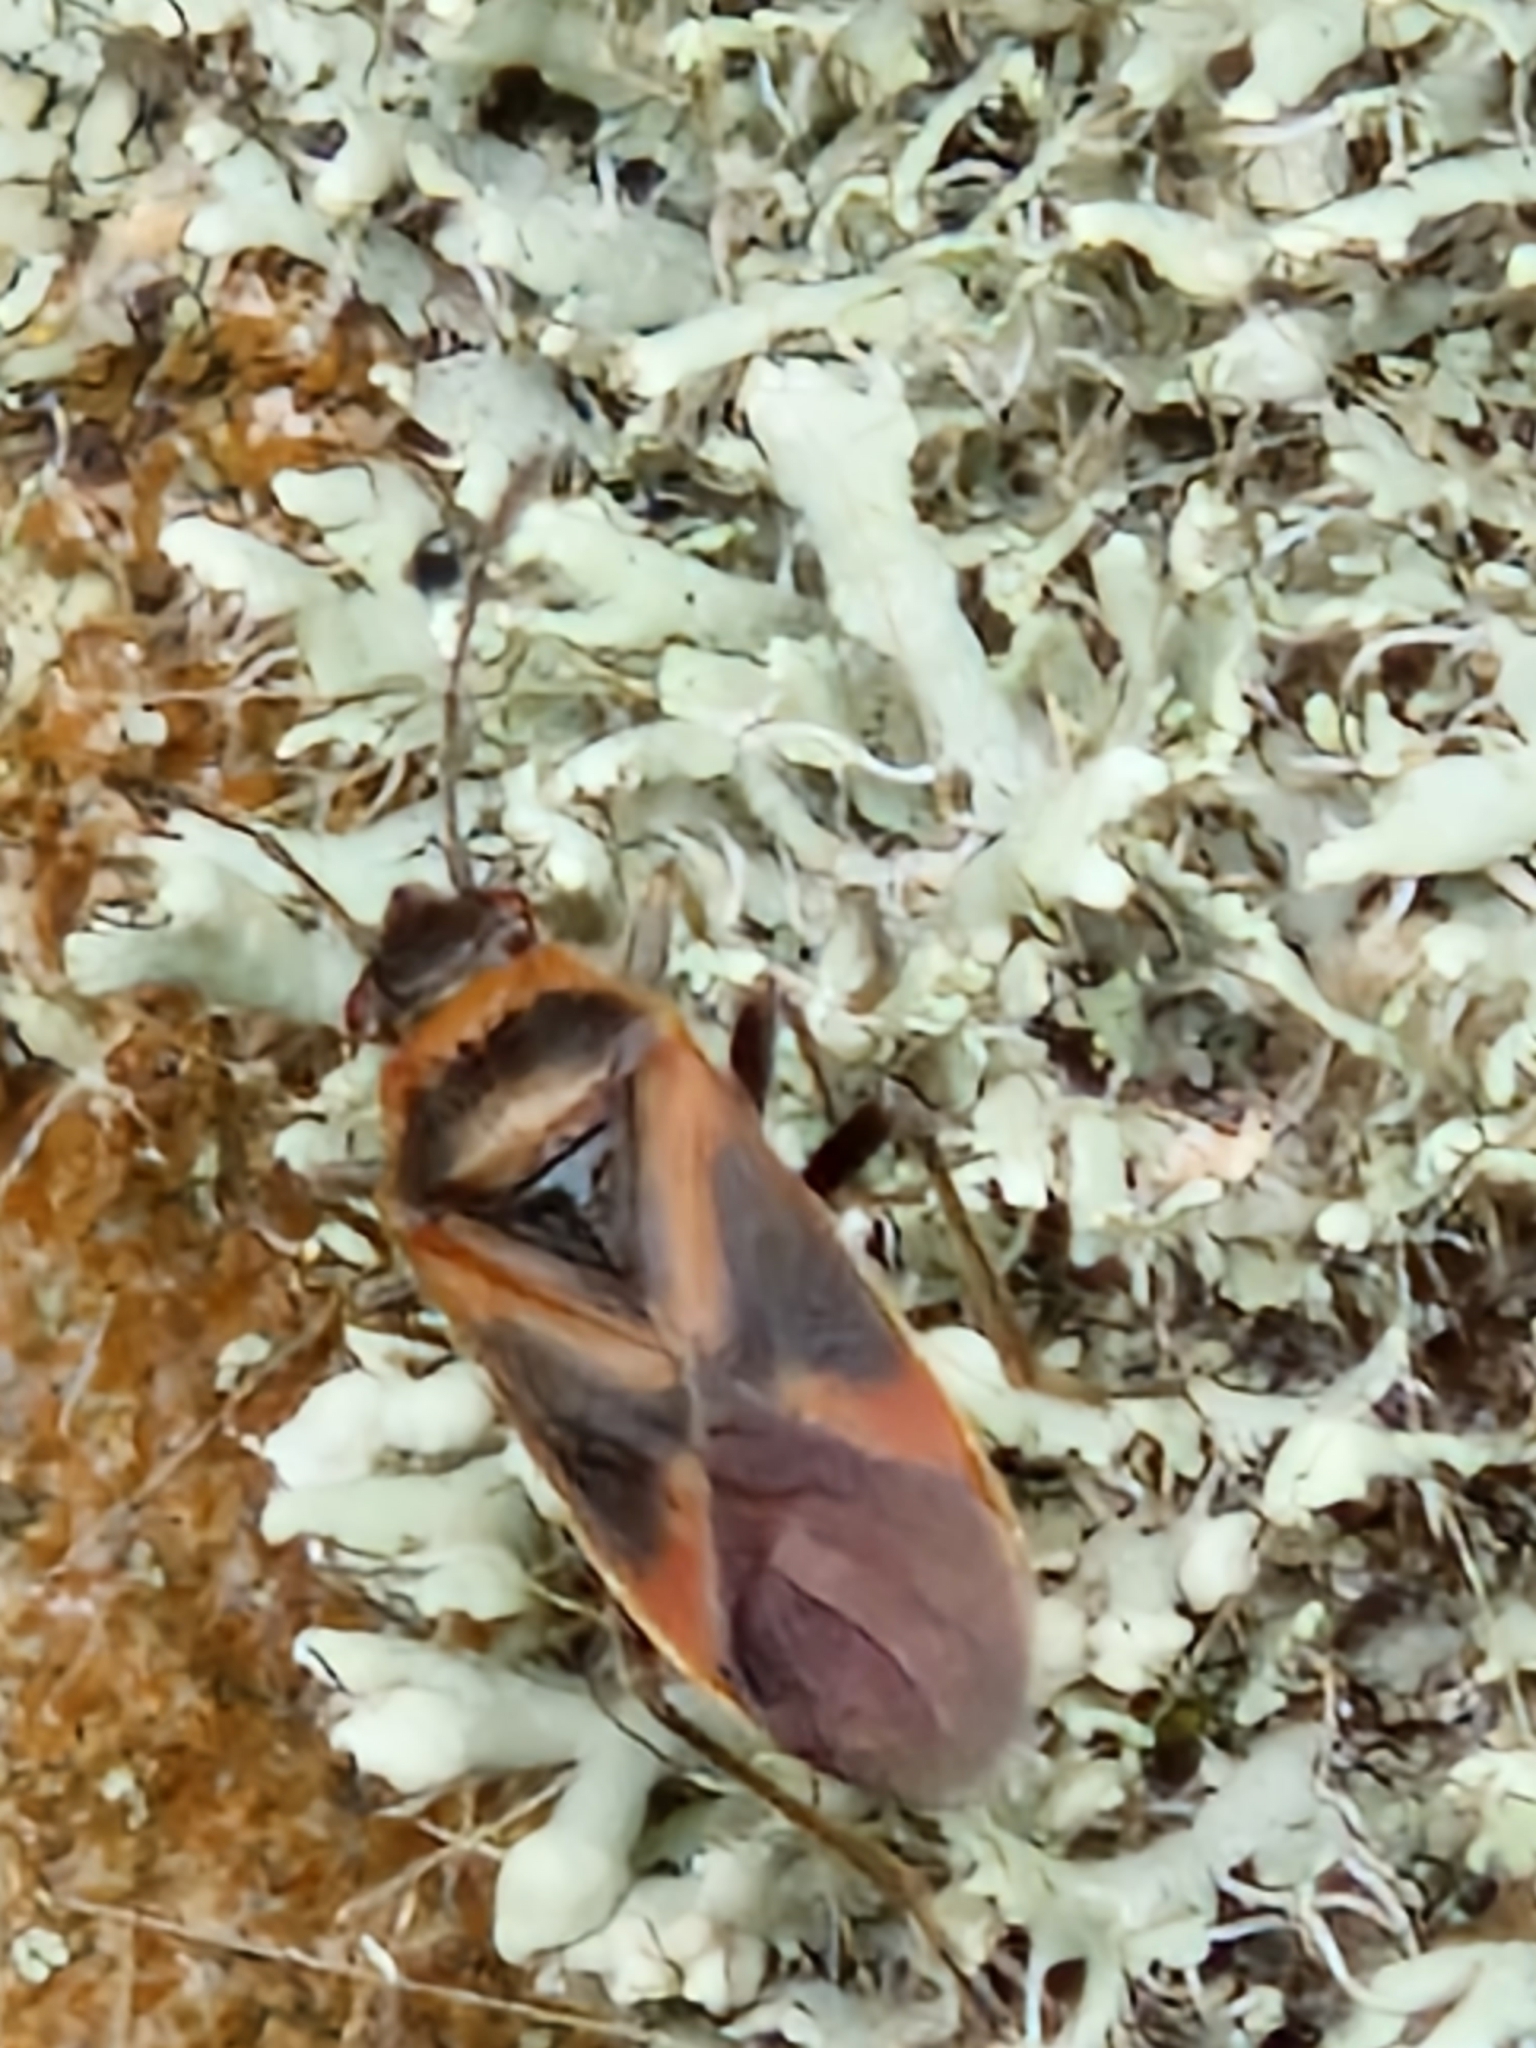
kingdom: Animalia
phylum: Arthropoda
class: Insecta
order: Hemiptera
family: Lygaeidae
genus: Arocatus
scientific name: Arocatus roeselii
